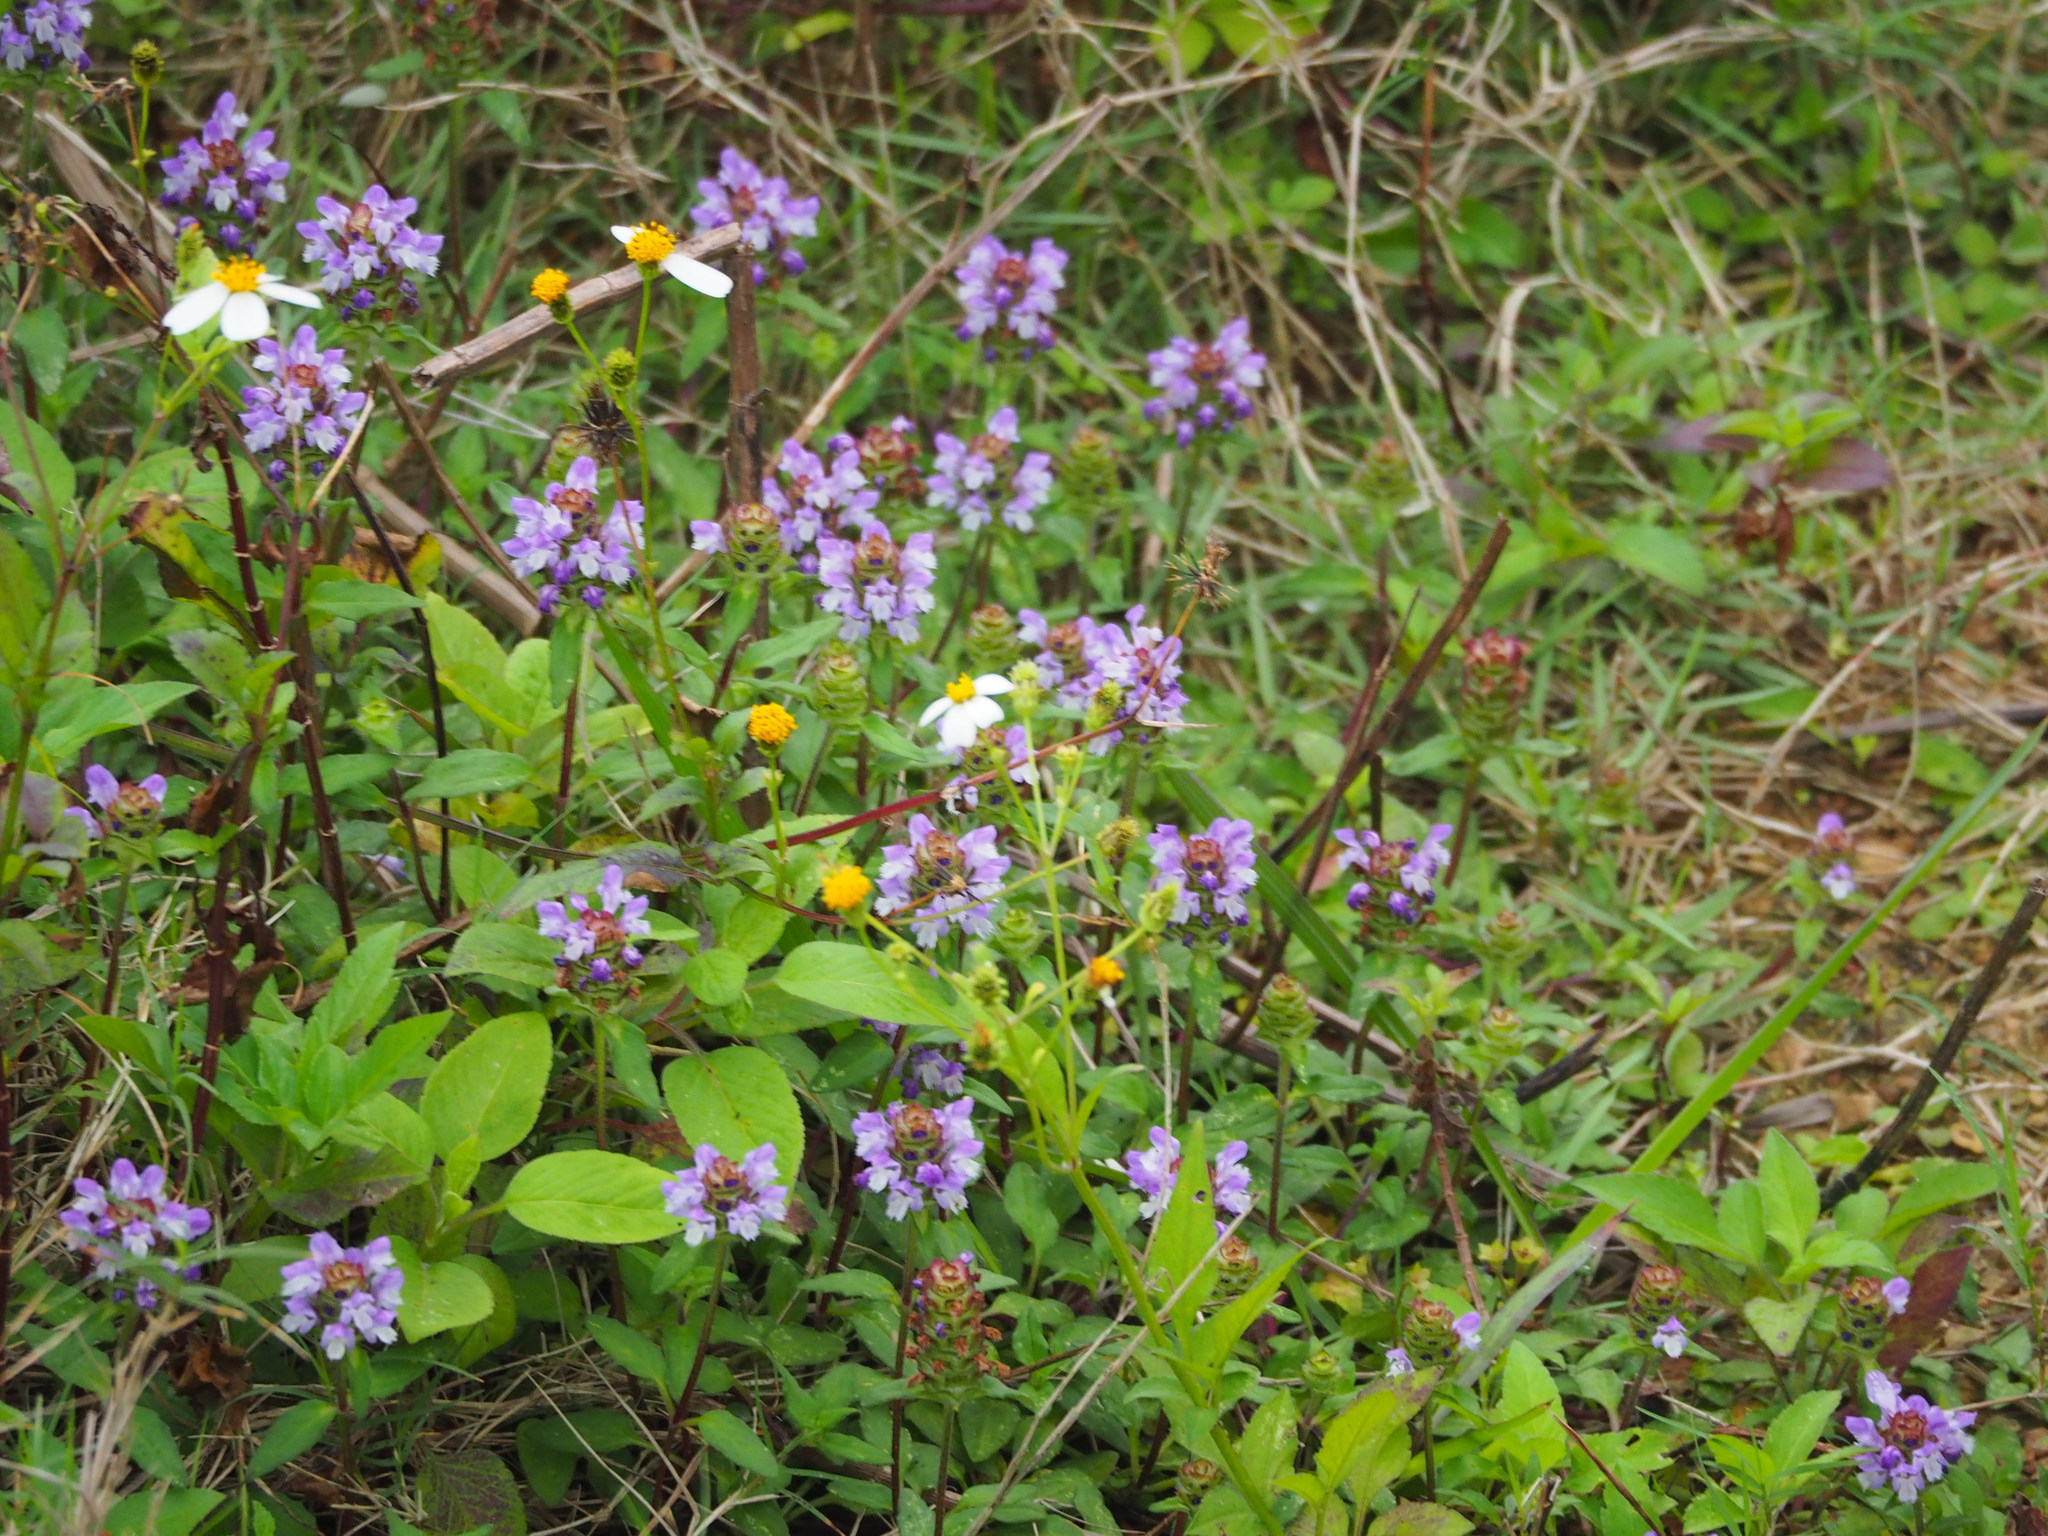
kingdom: Plantae
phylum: Tracheophyta
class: Magnoliopsida
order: Lamiales
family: Lamiaceae
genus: Prunella
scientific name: Prunella vulgaris
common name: Heal-all
